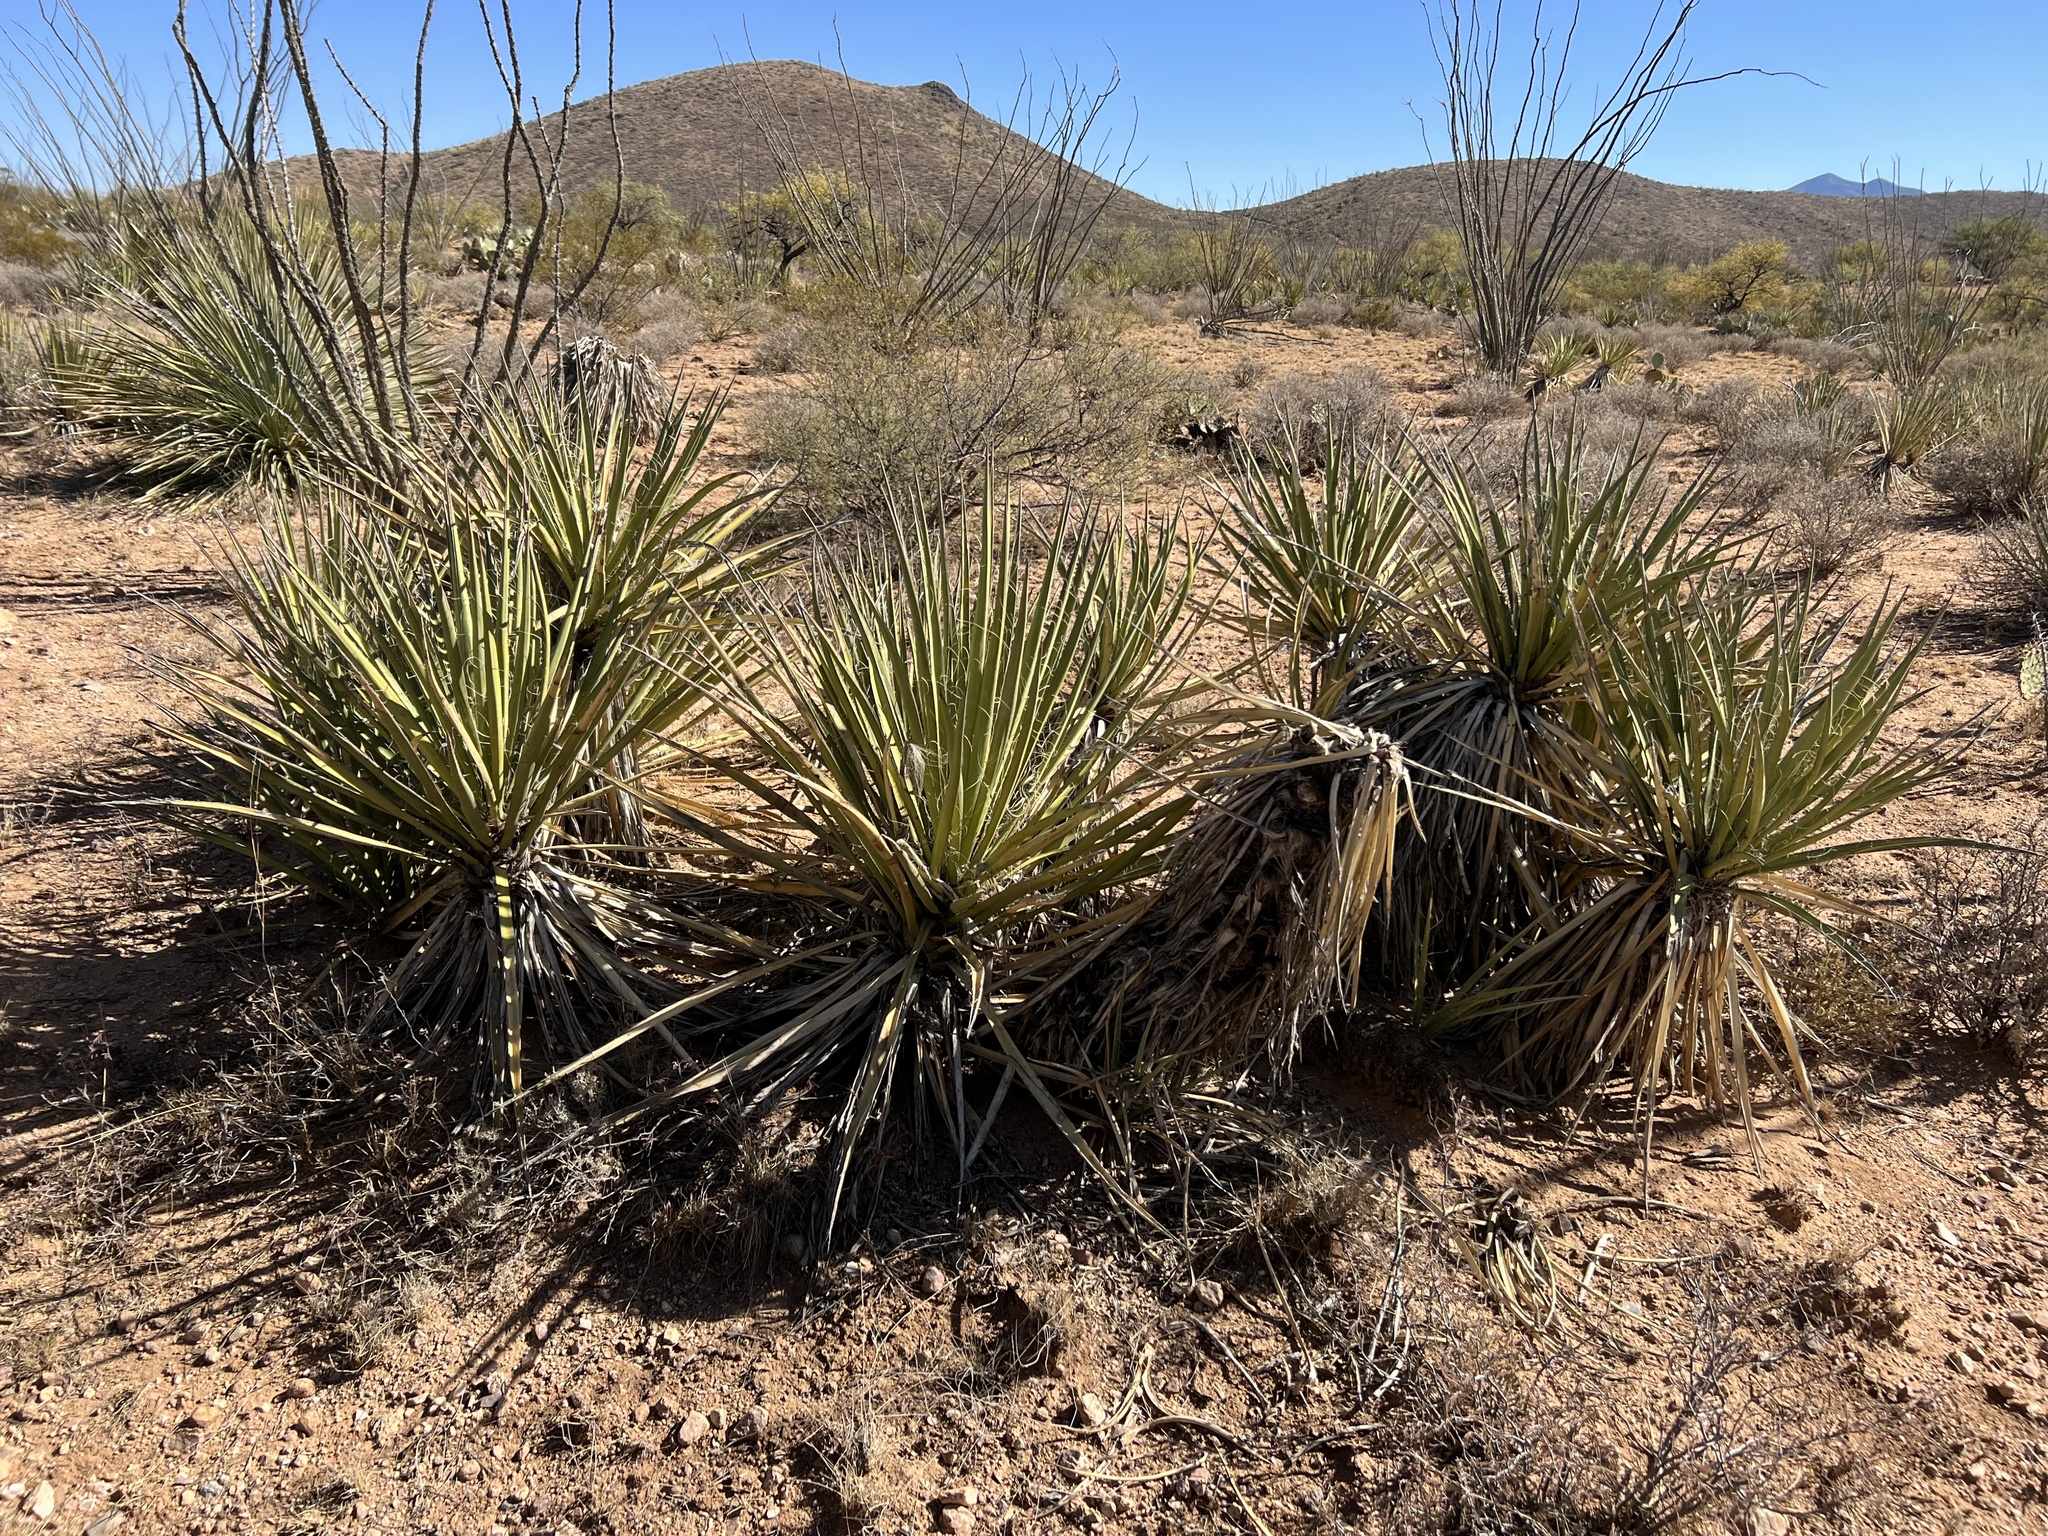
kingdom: Plantae
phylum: Tracheophyta
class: Liliopsida
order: Asparagales
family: Asparagaceae
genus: Yucca
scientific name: Yucca baccata
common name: Banana yucca
